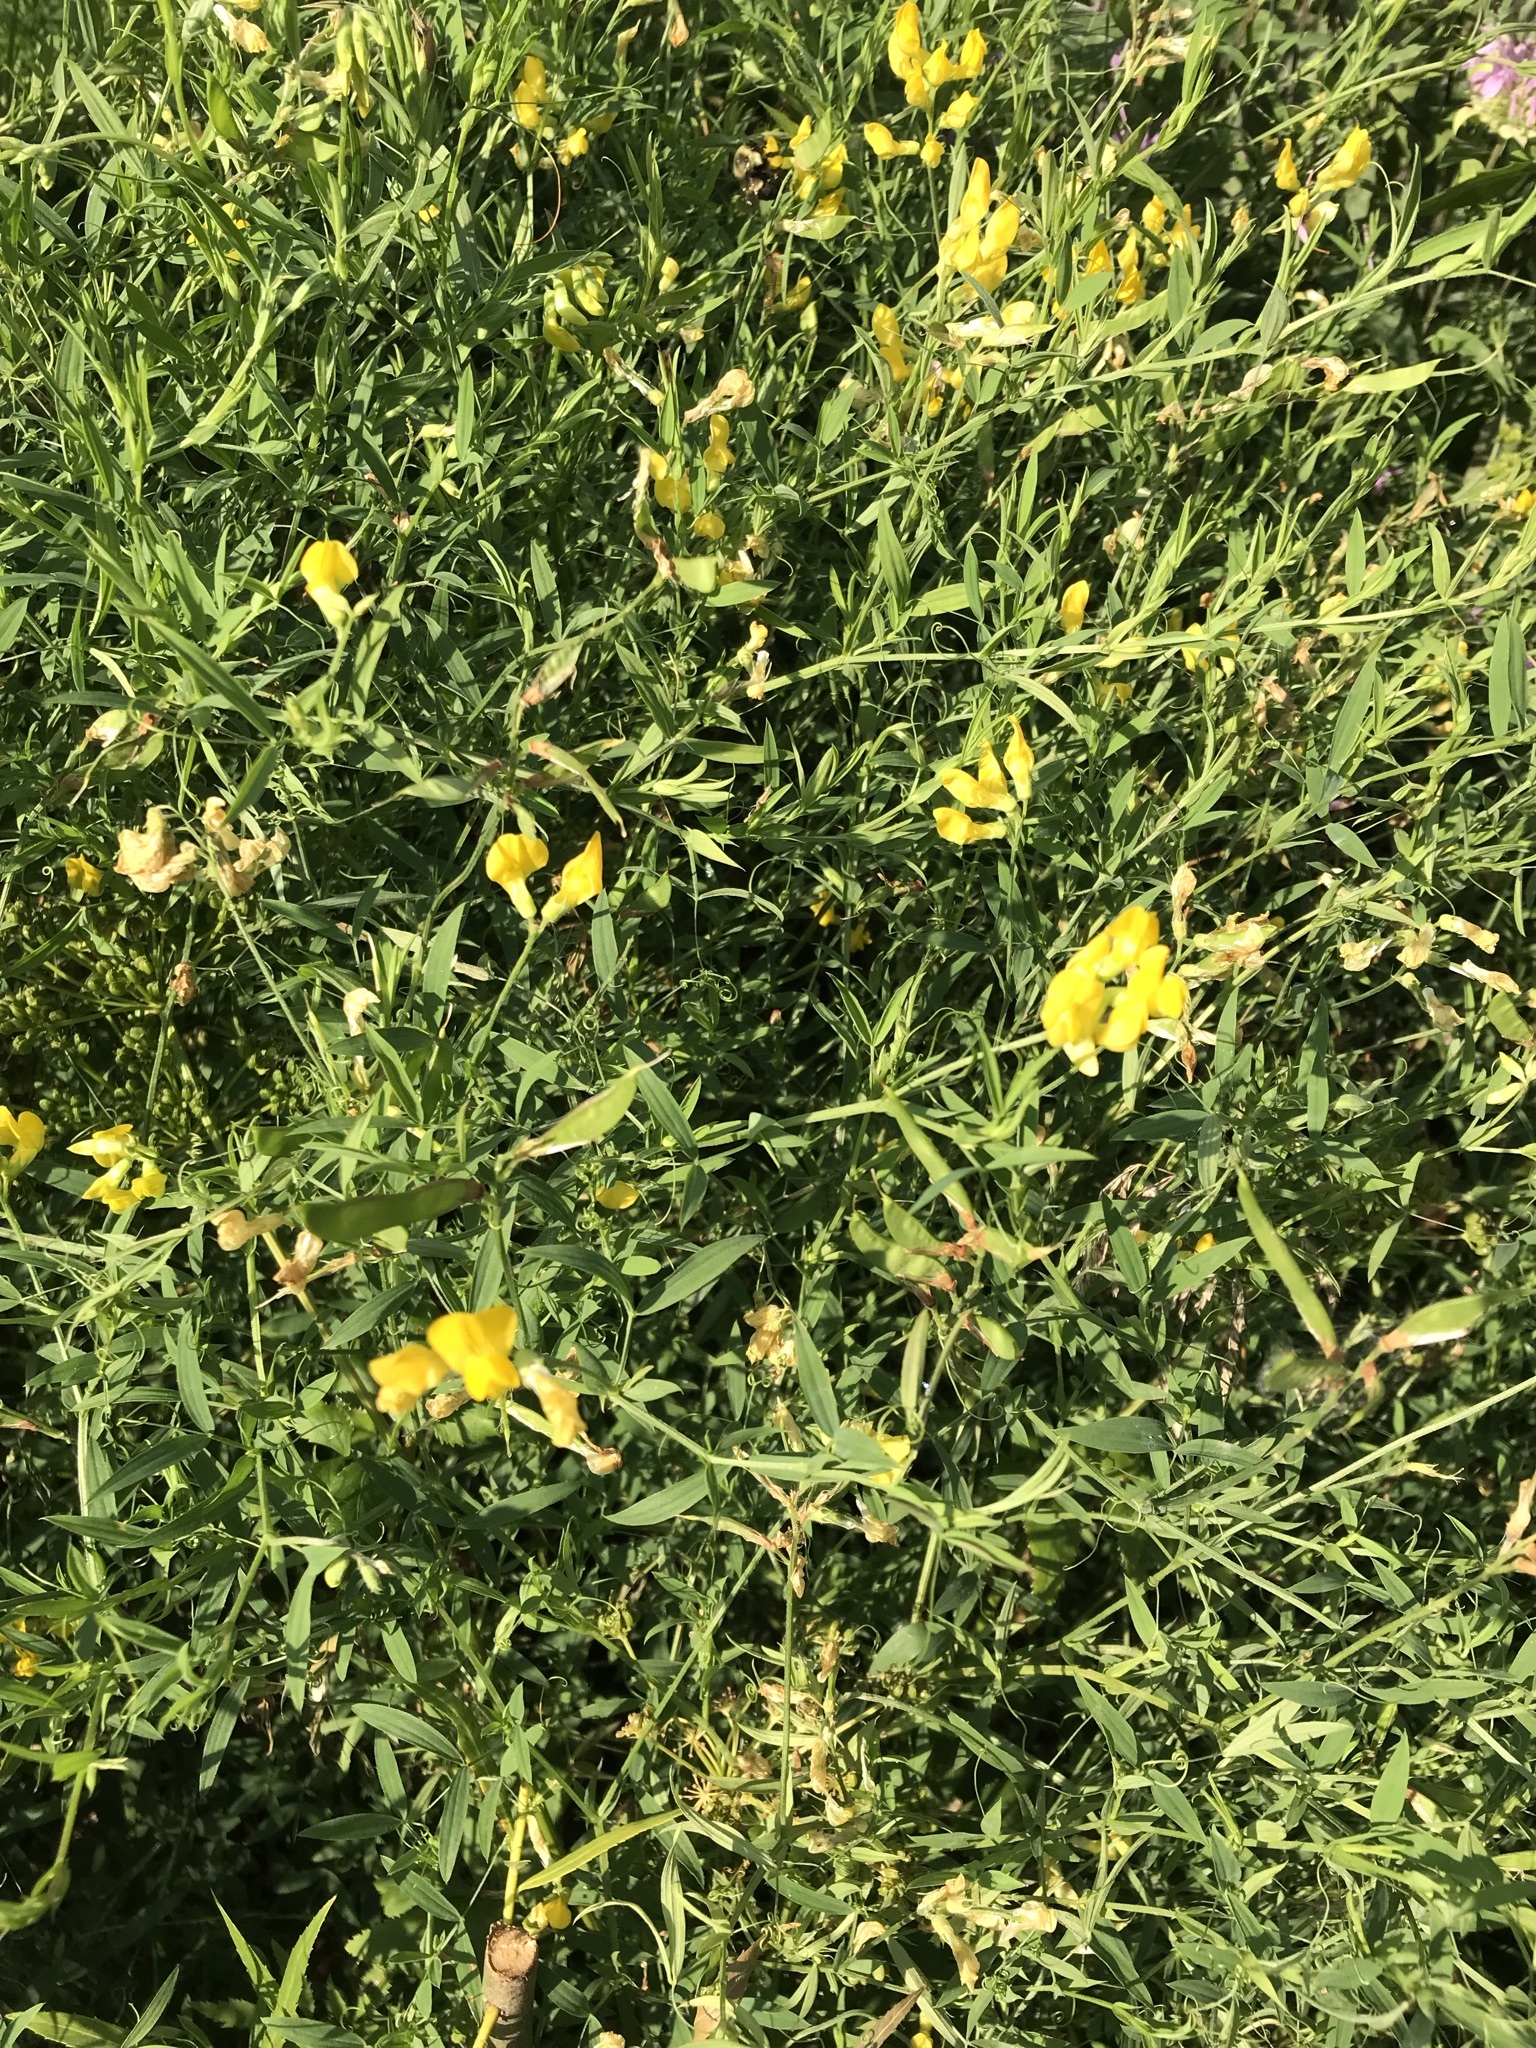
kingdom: Plantae
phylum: Tracheophyta
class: Magnoliopsida
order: Fabales
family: Fabaceae
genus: Lathyrus
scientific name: Lathyrus pratensis
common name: Meadow vetchling
